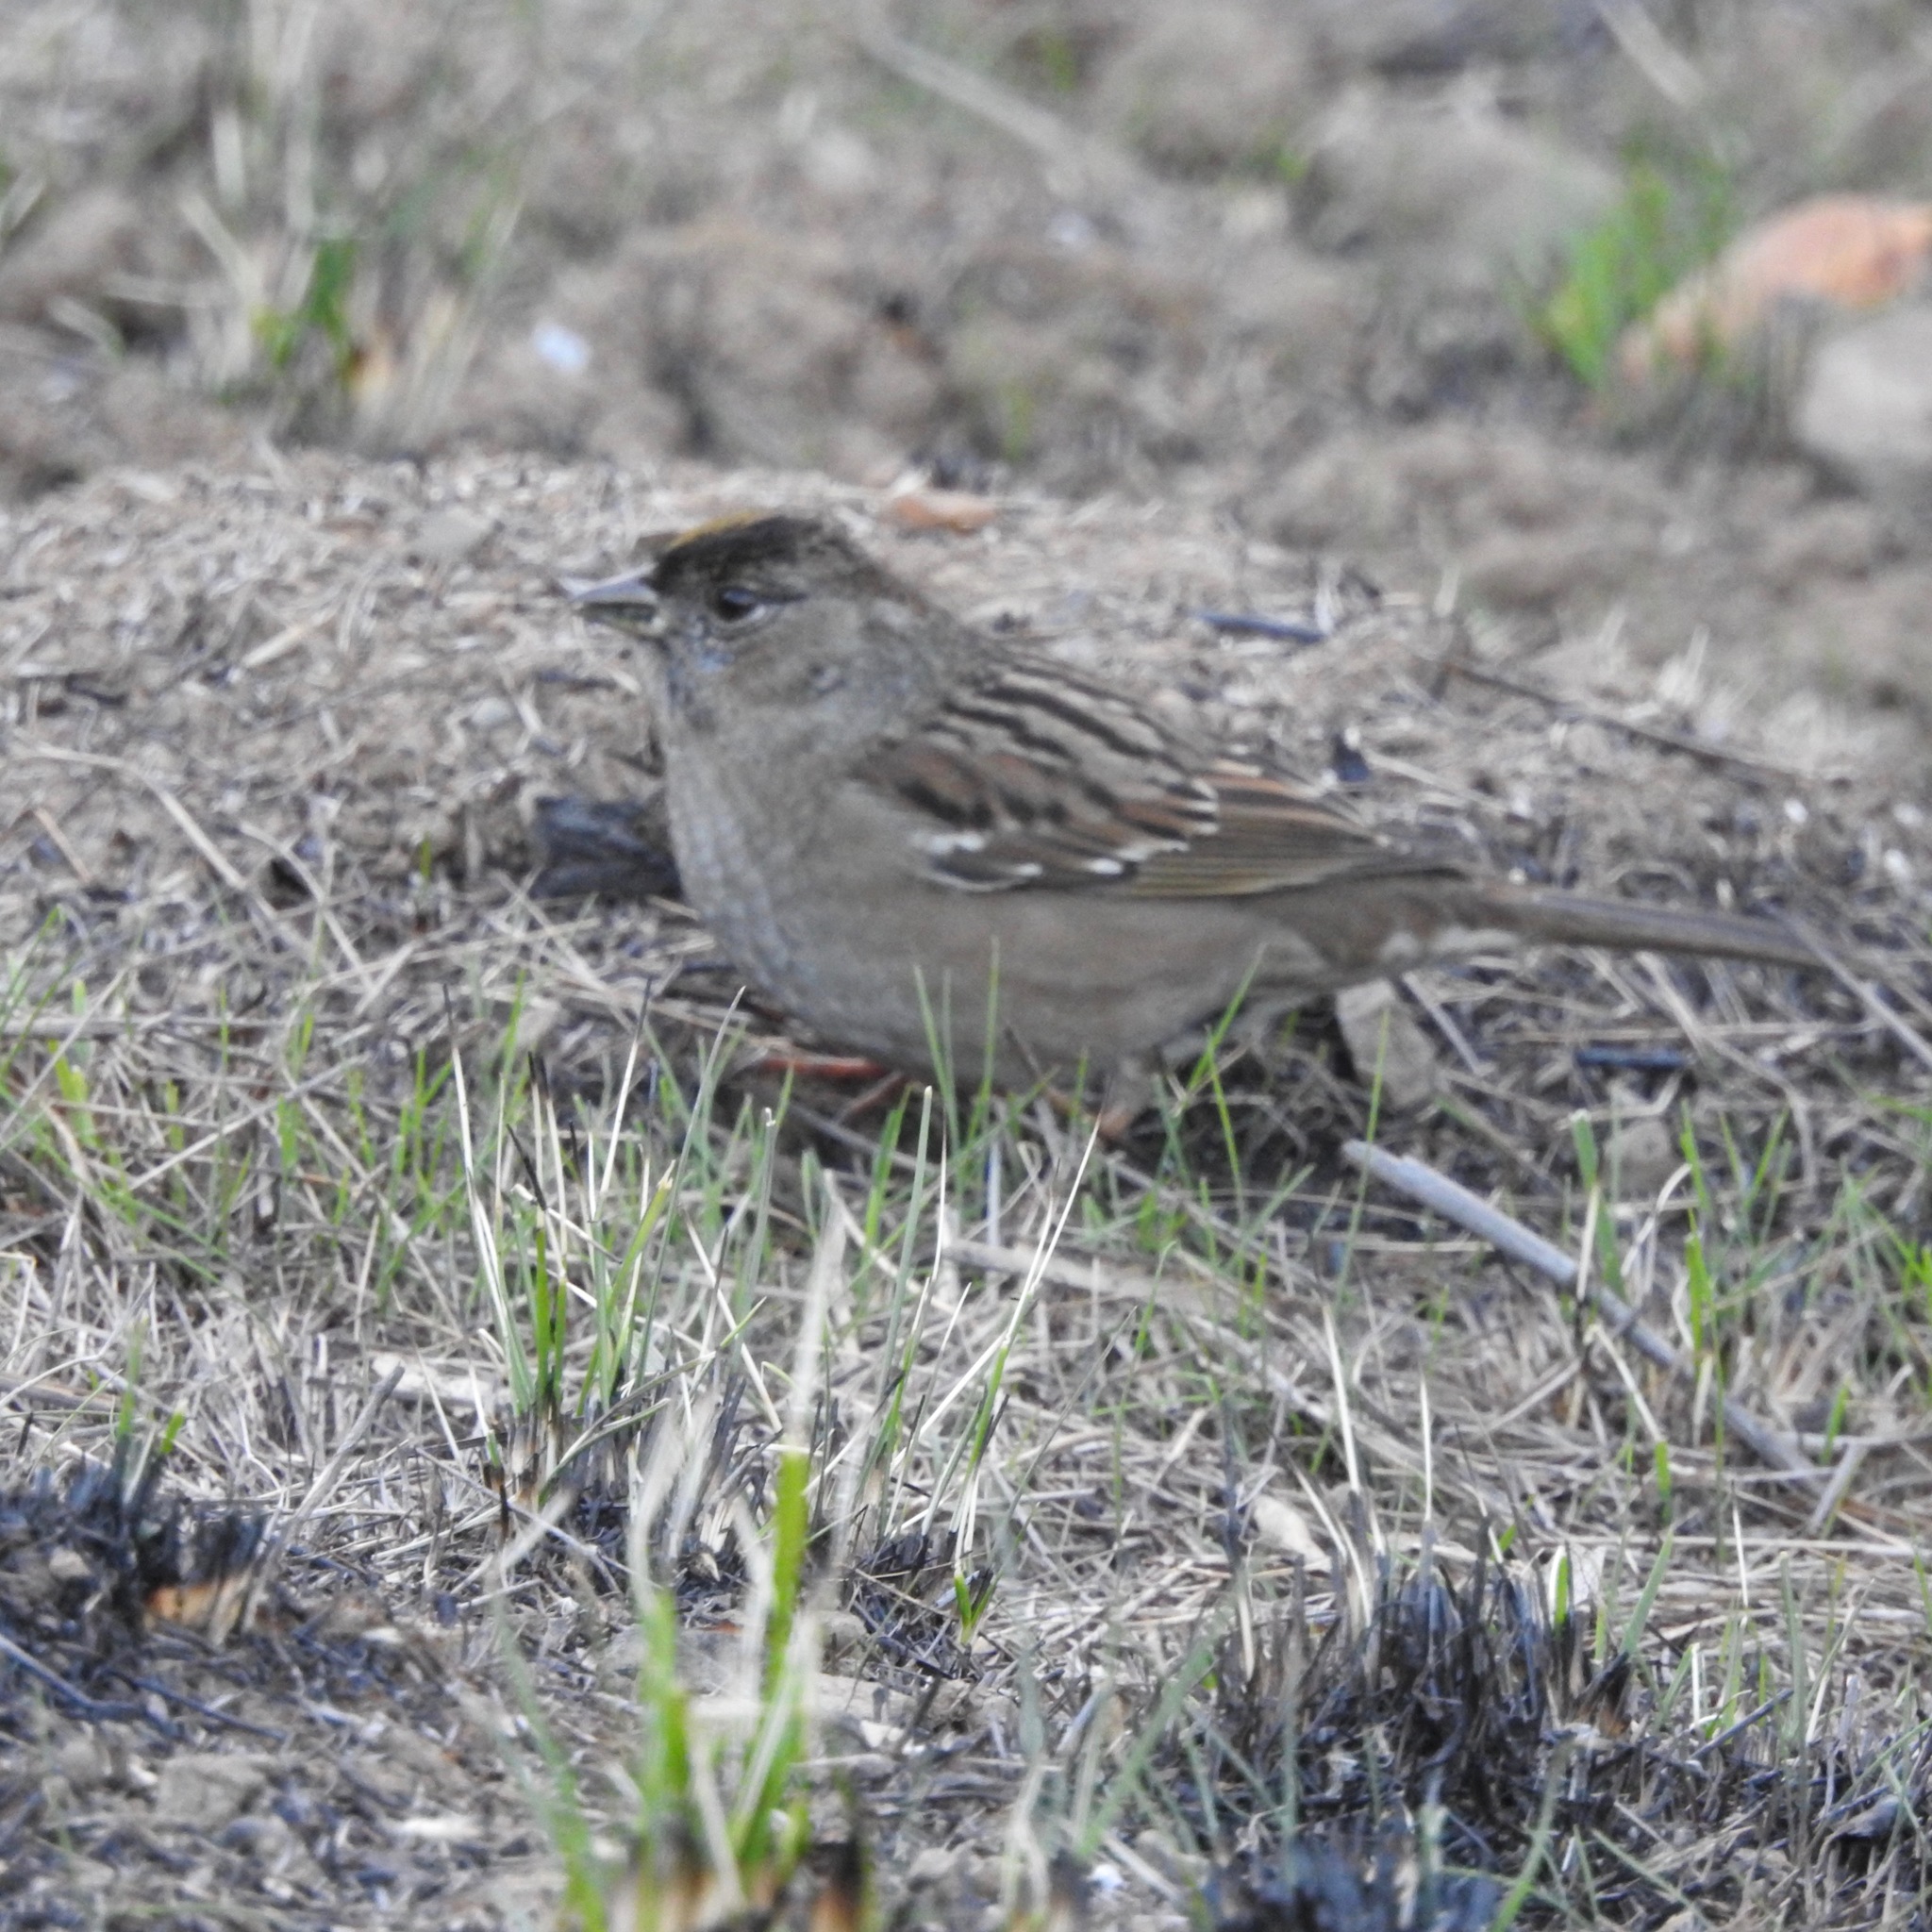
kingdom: Animalia
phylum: Chordata
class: Aves
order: Passeriformes
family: Passerellidae
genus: Zonotrichia
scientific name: Zonotrichia atricapilla
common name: Golden-crowned sparrow
